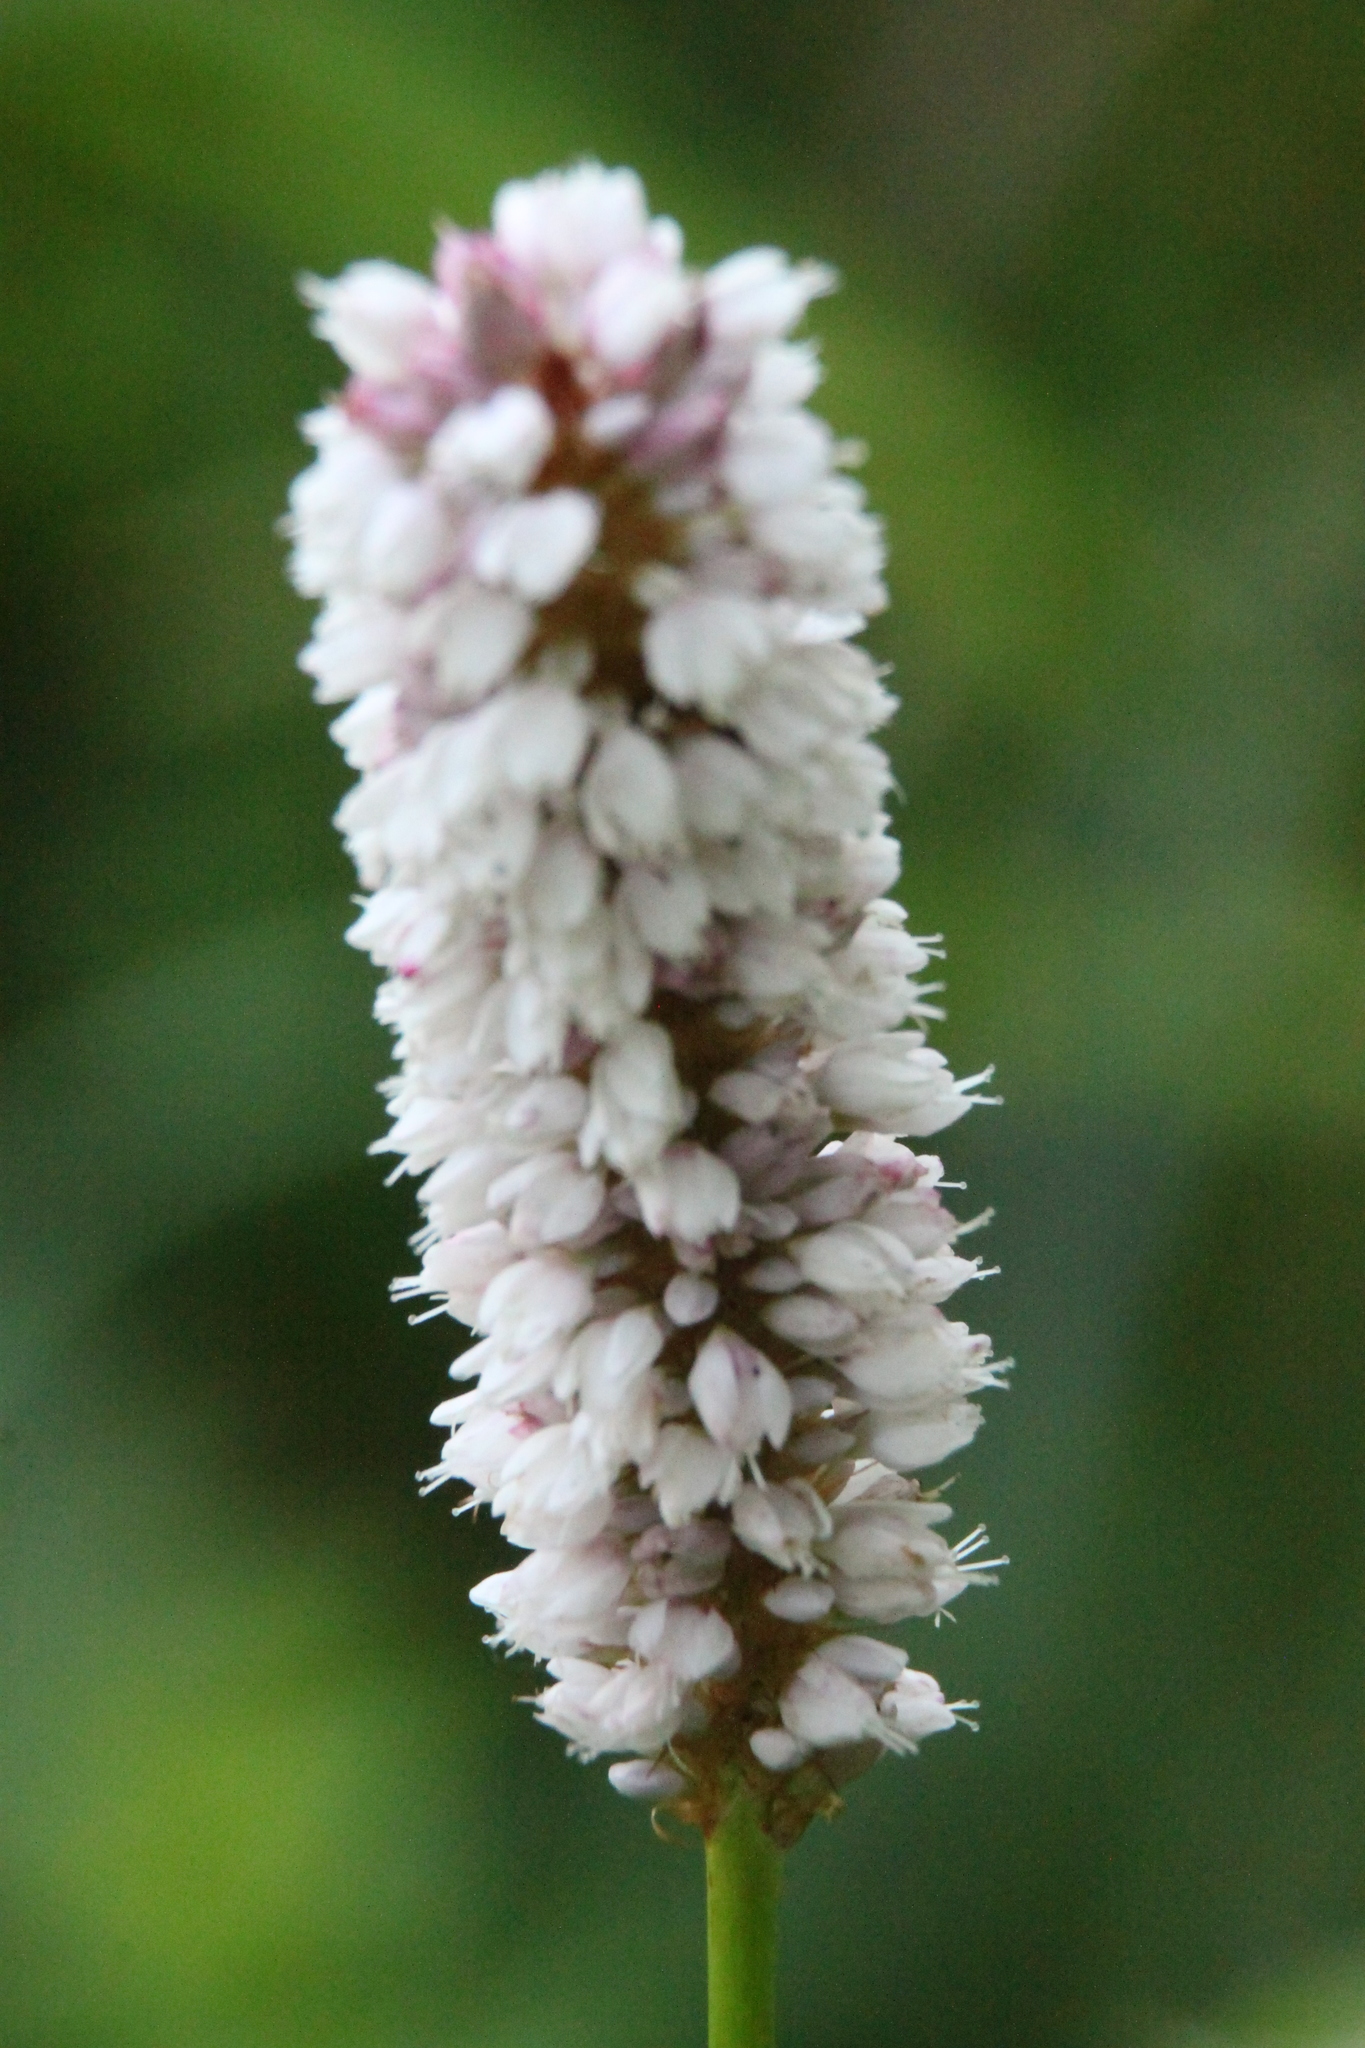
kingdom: Plantae
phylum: Tracheophyta
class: Magnoliopsida
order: Caryophyllales
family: Polygonaceae
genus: Bistorta
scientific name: Bistorta officinalis
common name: Common bistort
